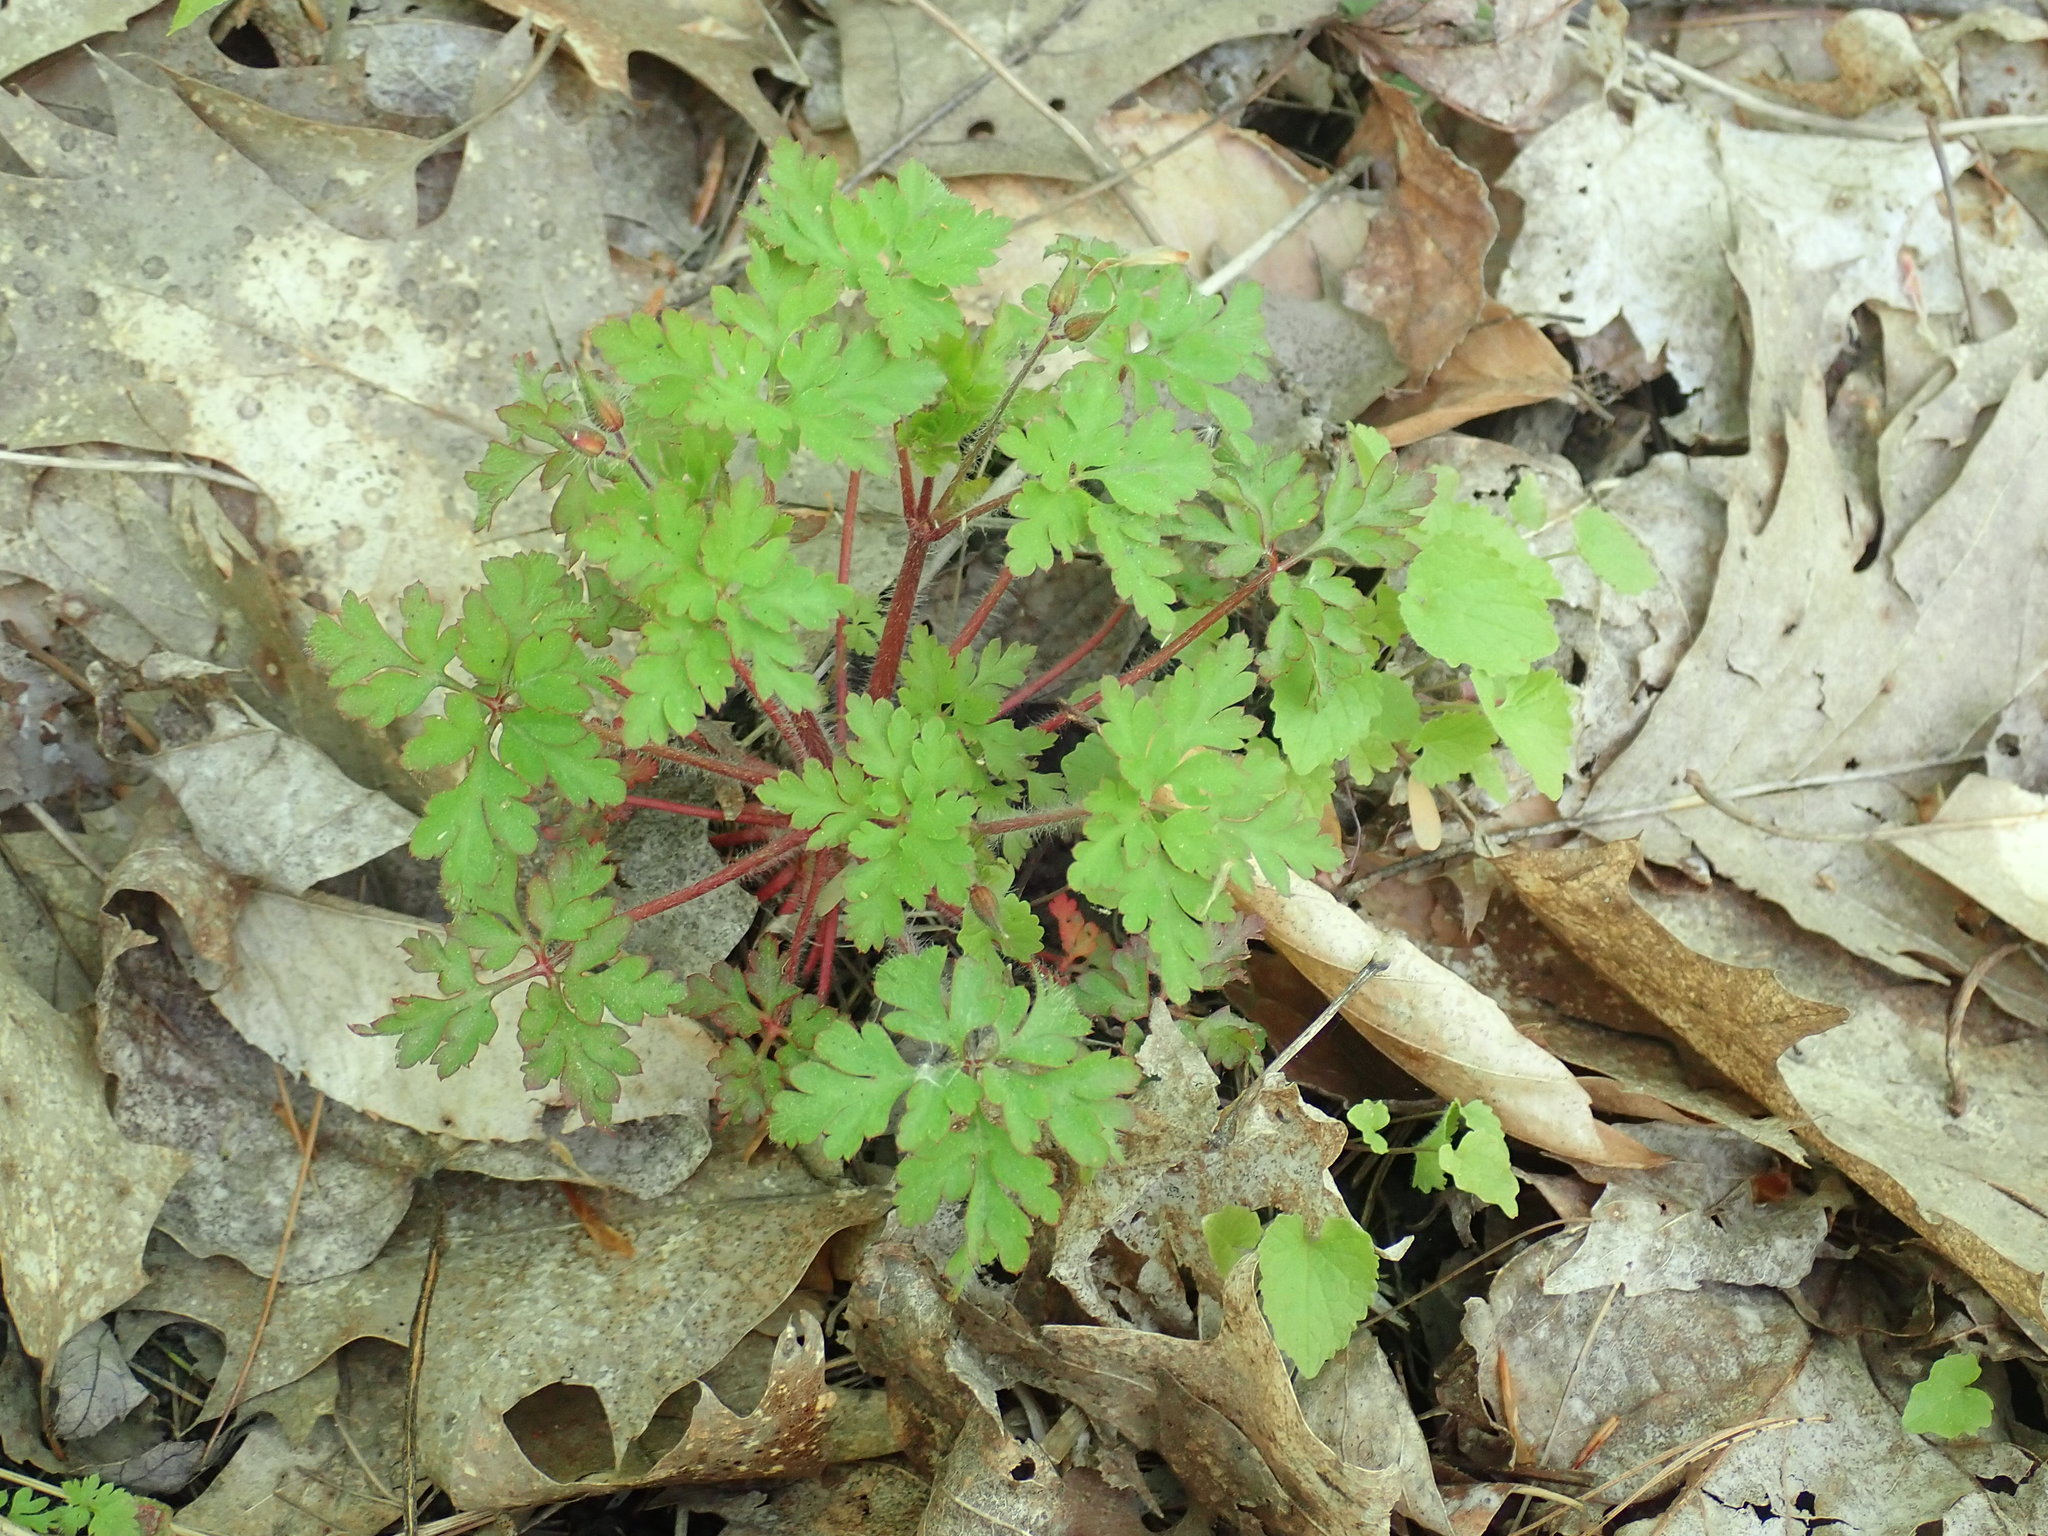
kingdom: Plantae
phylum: Tracheophyta
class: Magnoliopsida
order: Geraniales
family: Geraniaceae
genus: Geranium
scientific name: Geranium robertianum
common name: Herb-robert
